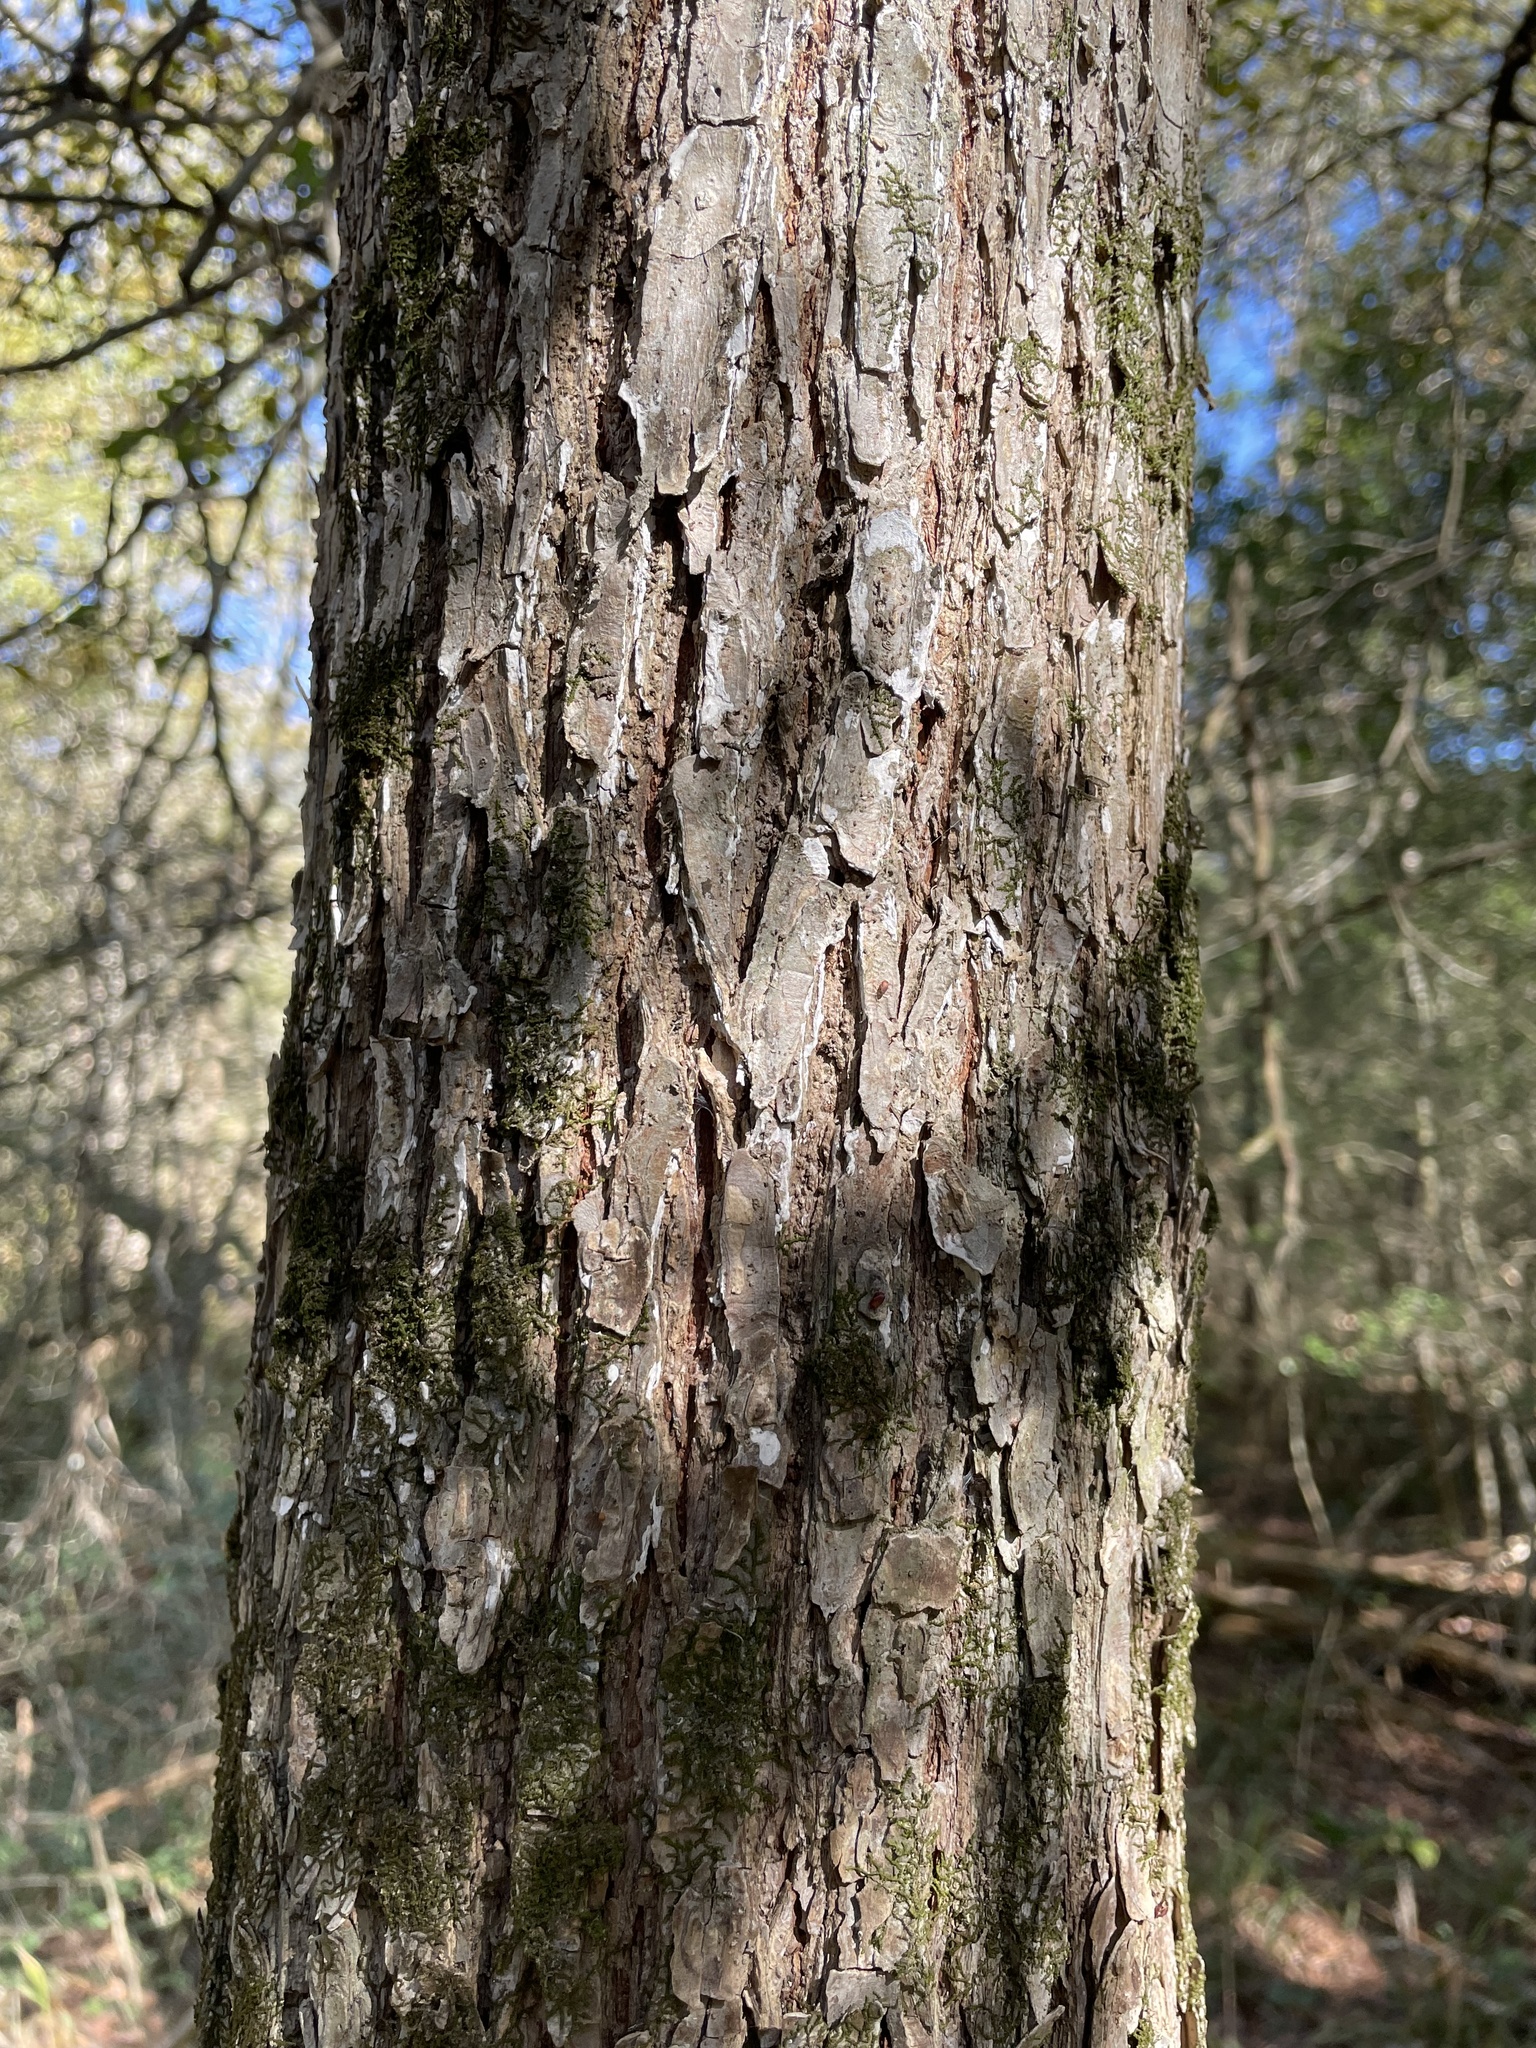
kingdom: Plantae
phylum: Tracheophyta
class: Magnoliopsida
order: Rosales
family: Ulmaceae
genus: Ulmus
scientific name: Ulmus crassifolia
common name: Basket elm
